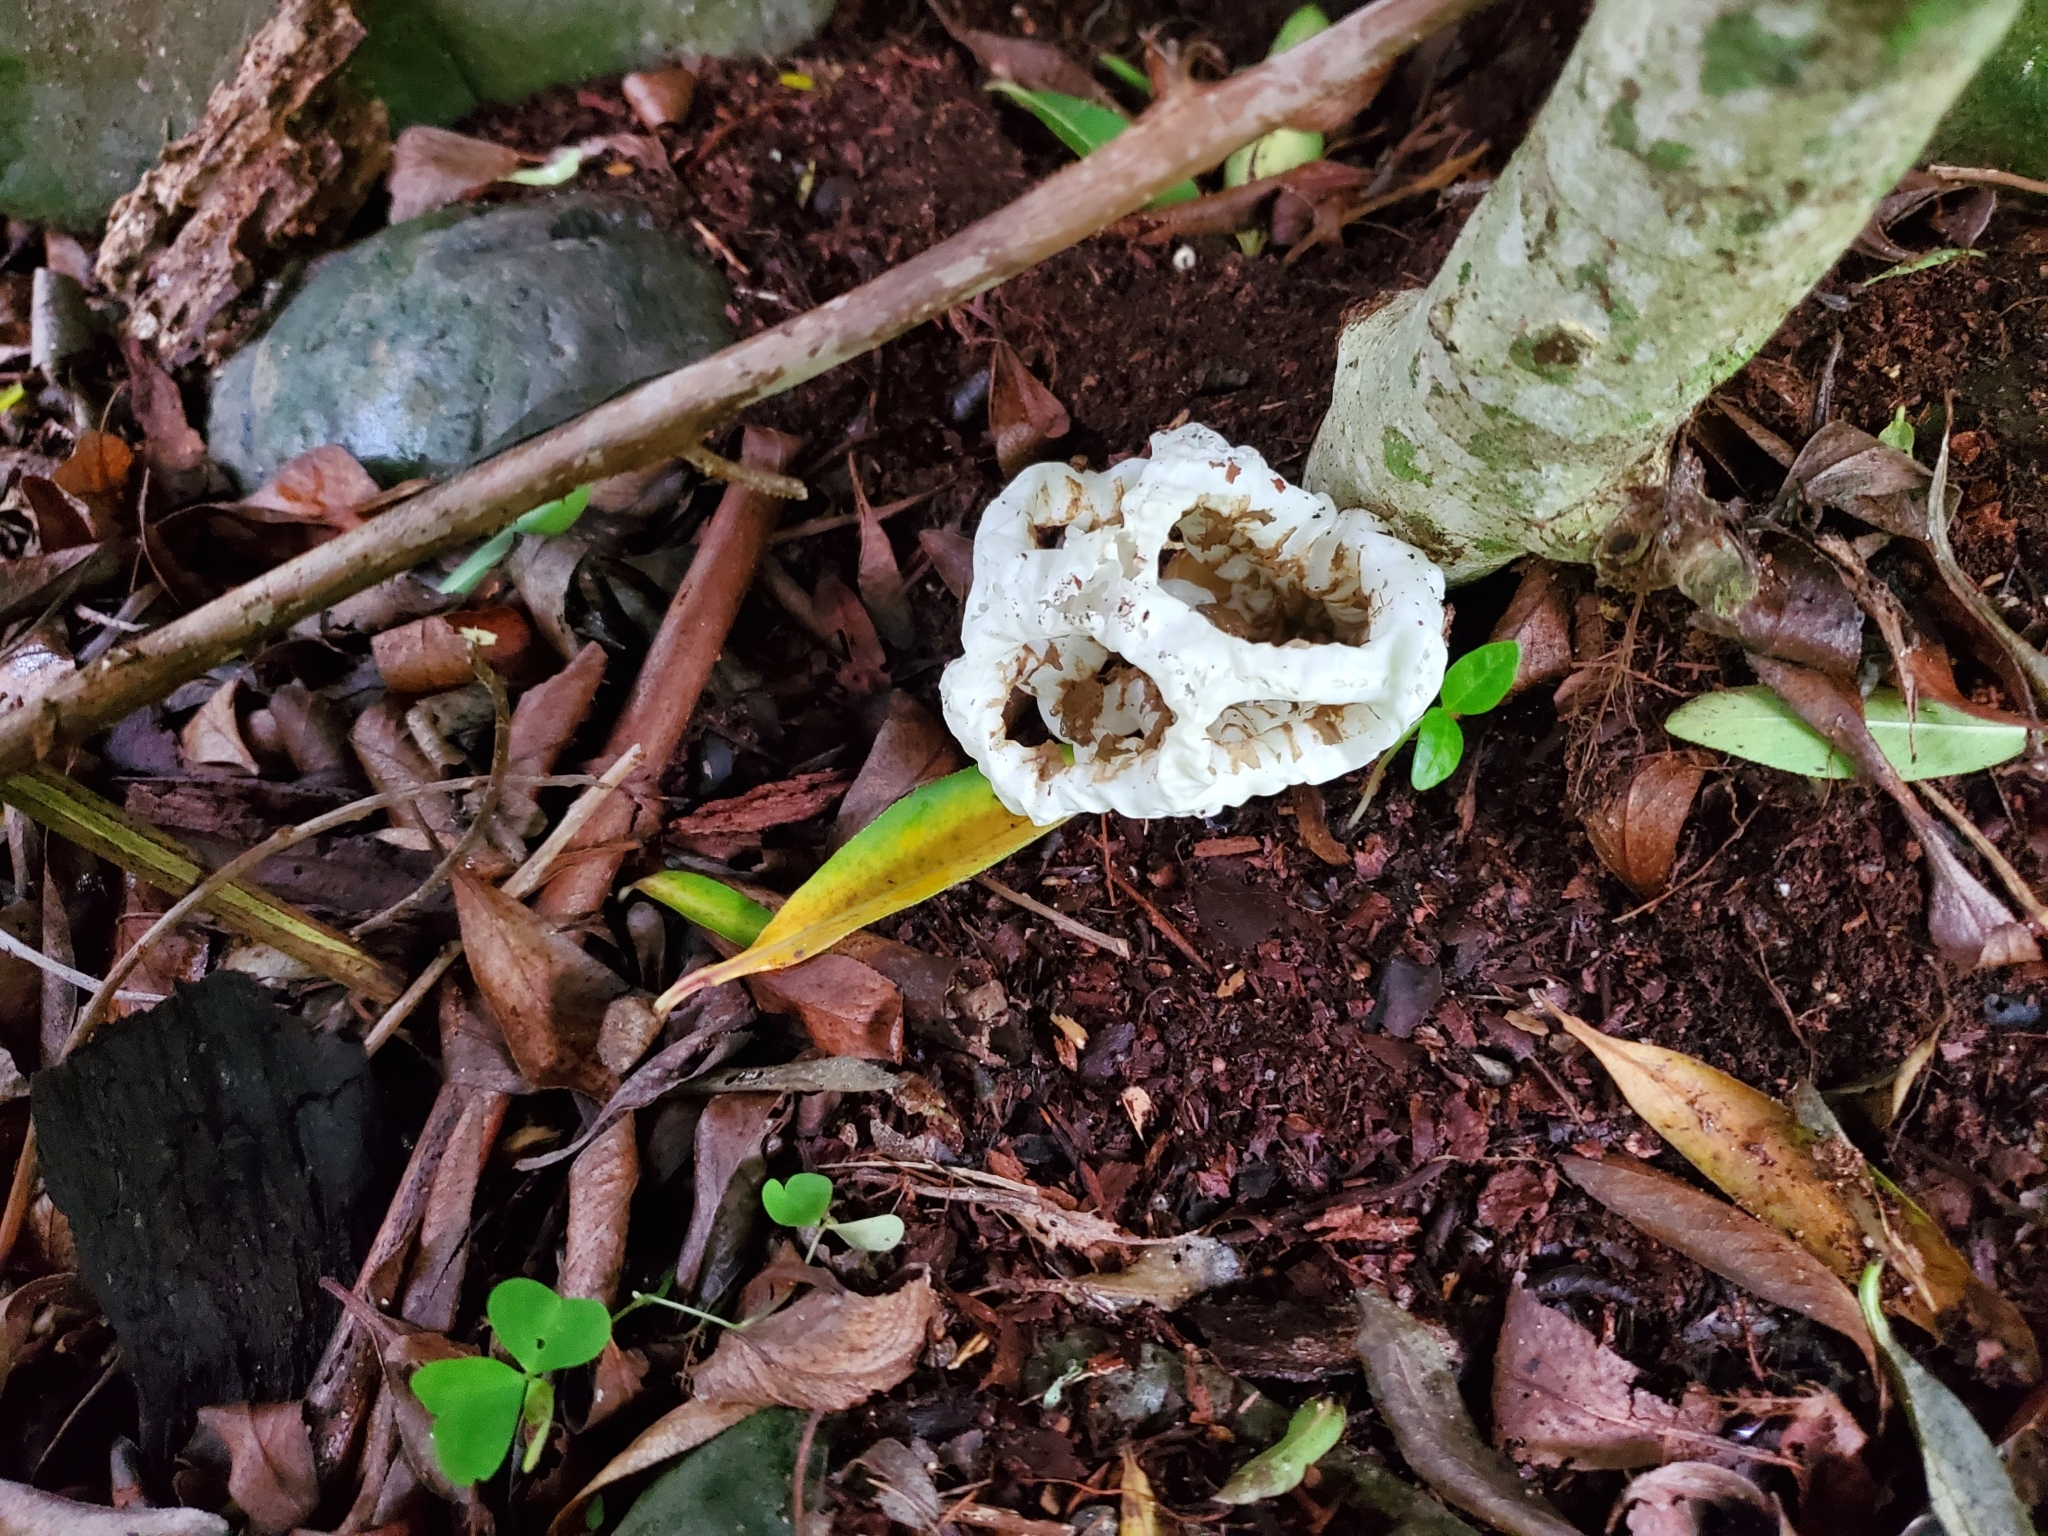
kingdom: Fungi
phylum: Basidiomycota
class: Agaricomycetes
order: Phallales
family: Phallaceae
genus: Ileodictyon
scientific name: Ileodictyon cibarium
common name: Basket fungus
